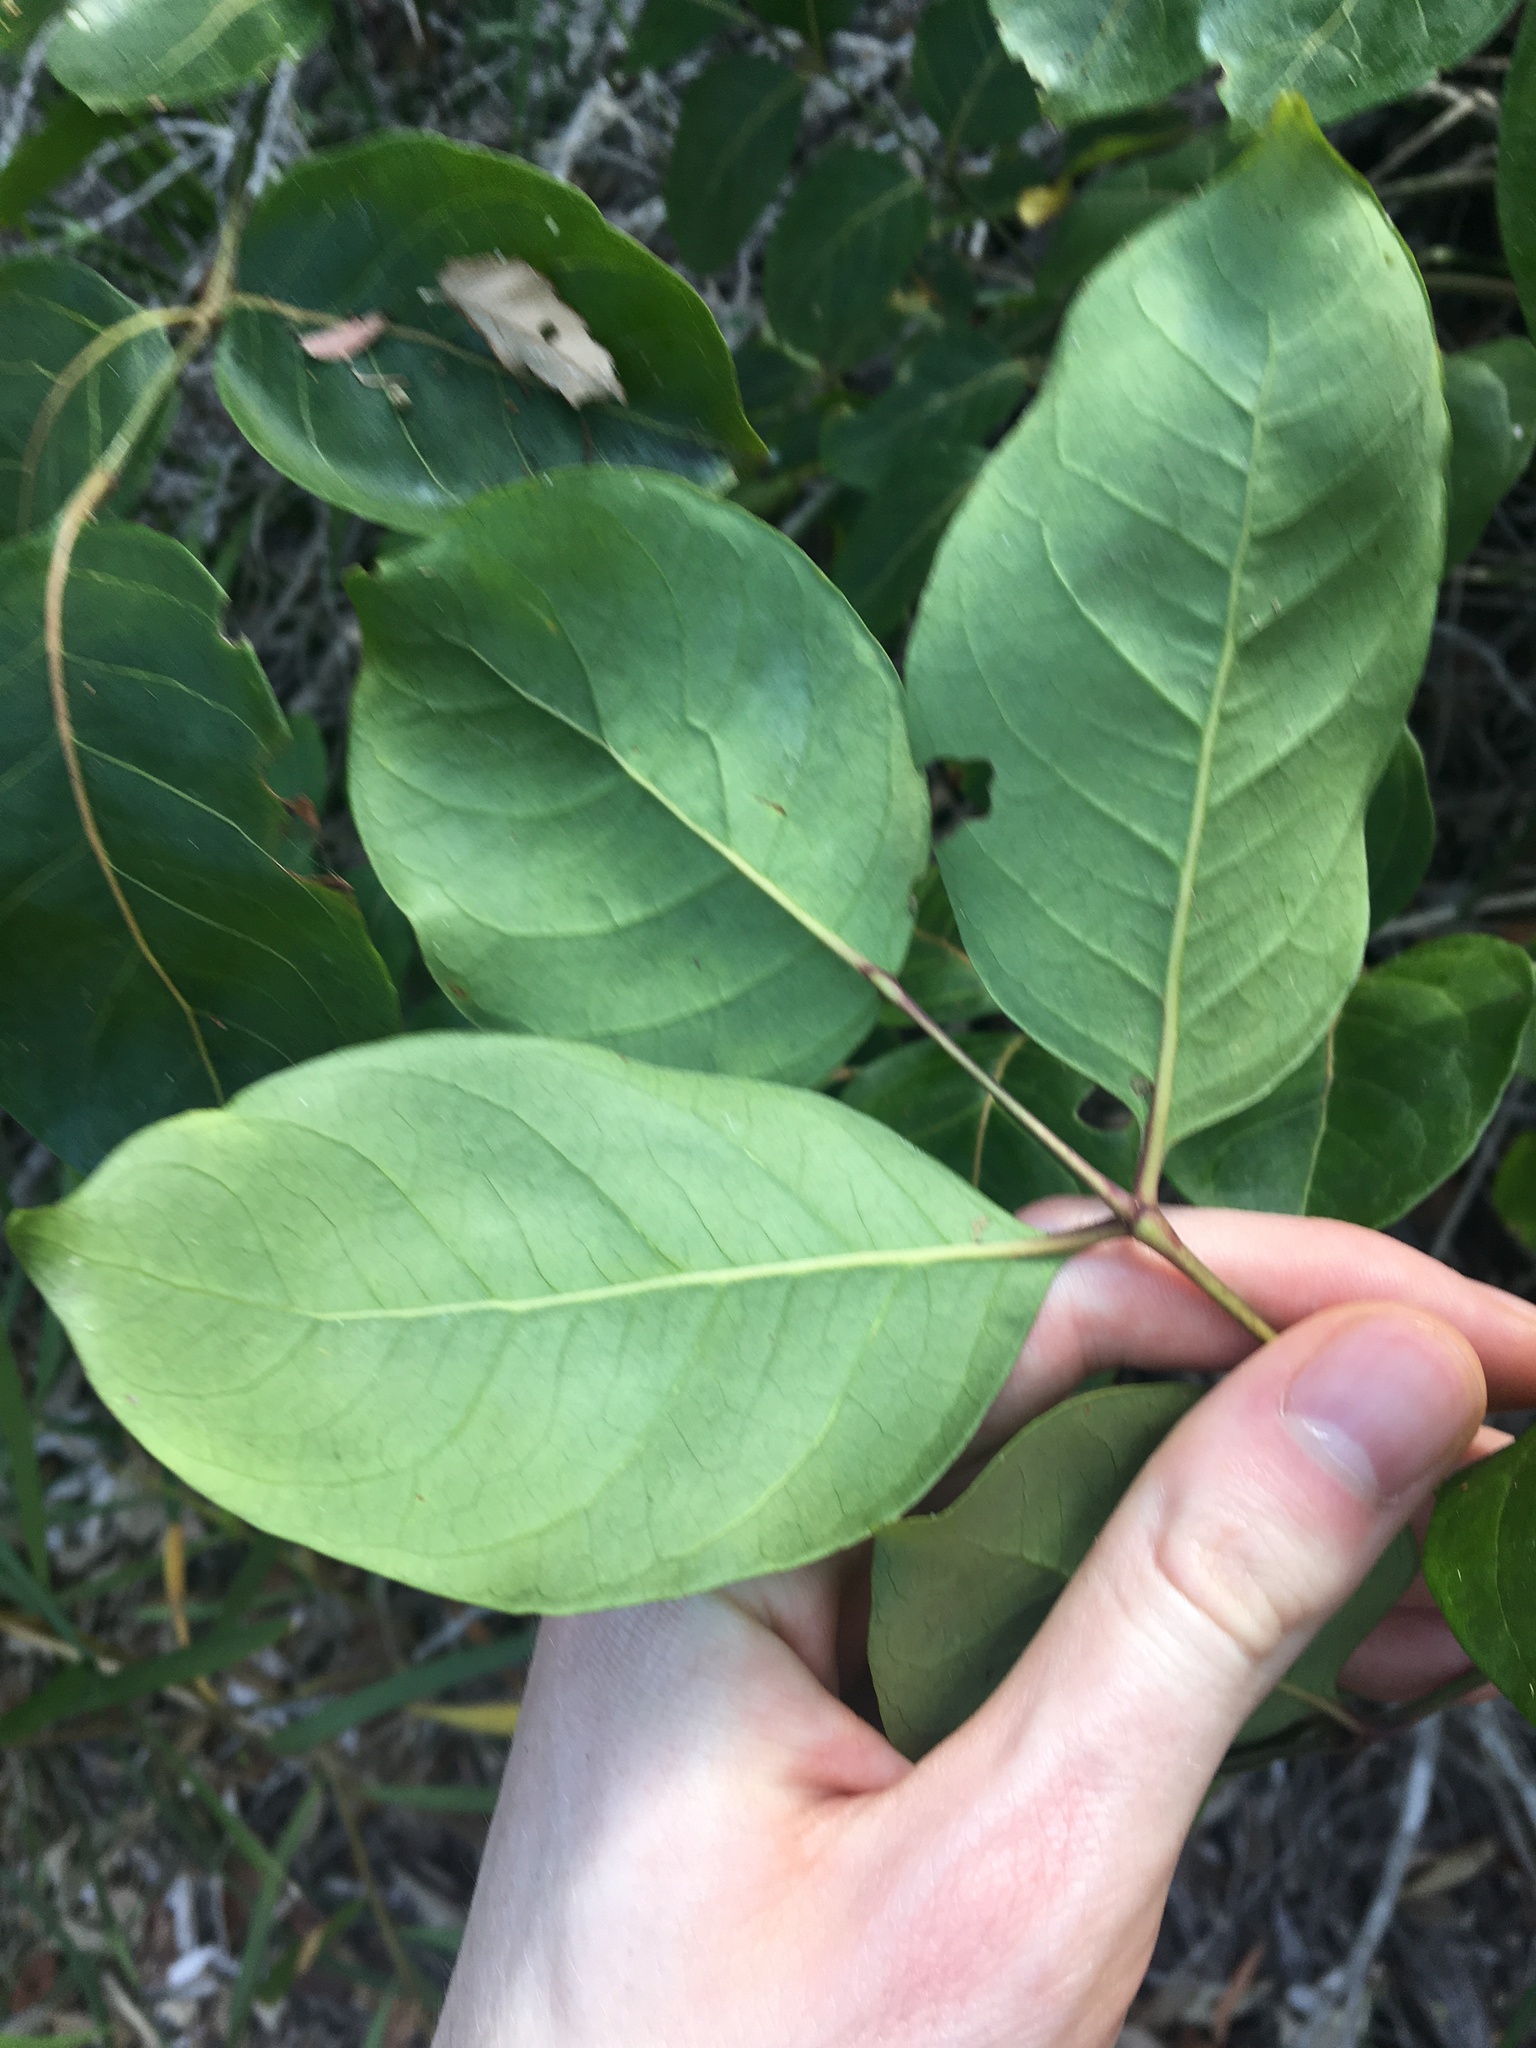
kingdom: Plantae
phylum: Tracheophyta
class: Magnoliopsida
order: Apiales
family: Araliaceae
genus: Polyscias
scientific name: Polyscias elegans
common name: Mowbulan whitewood
